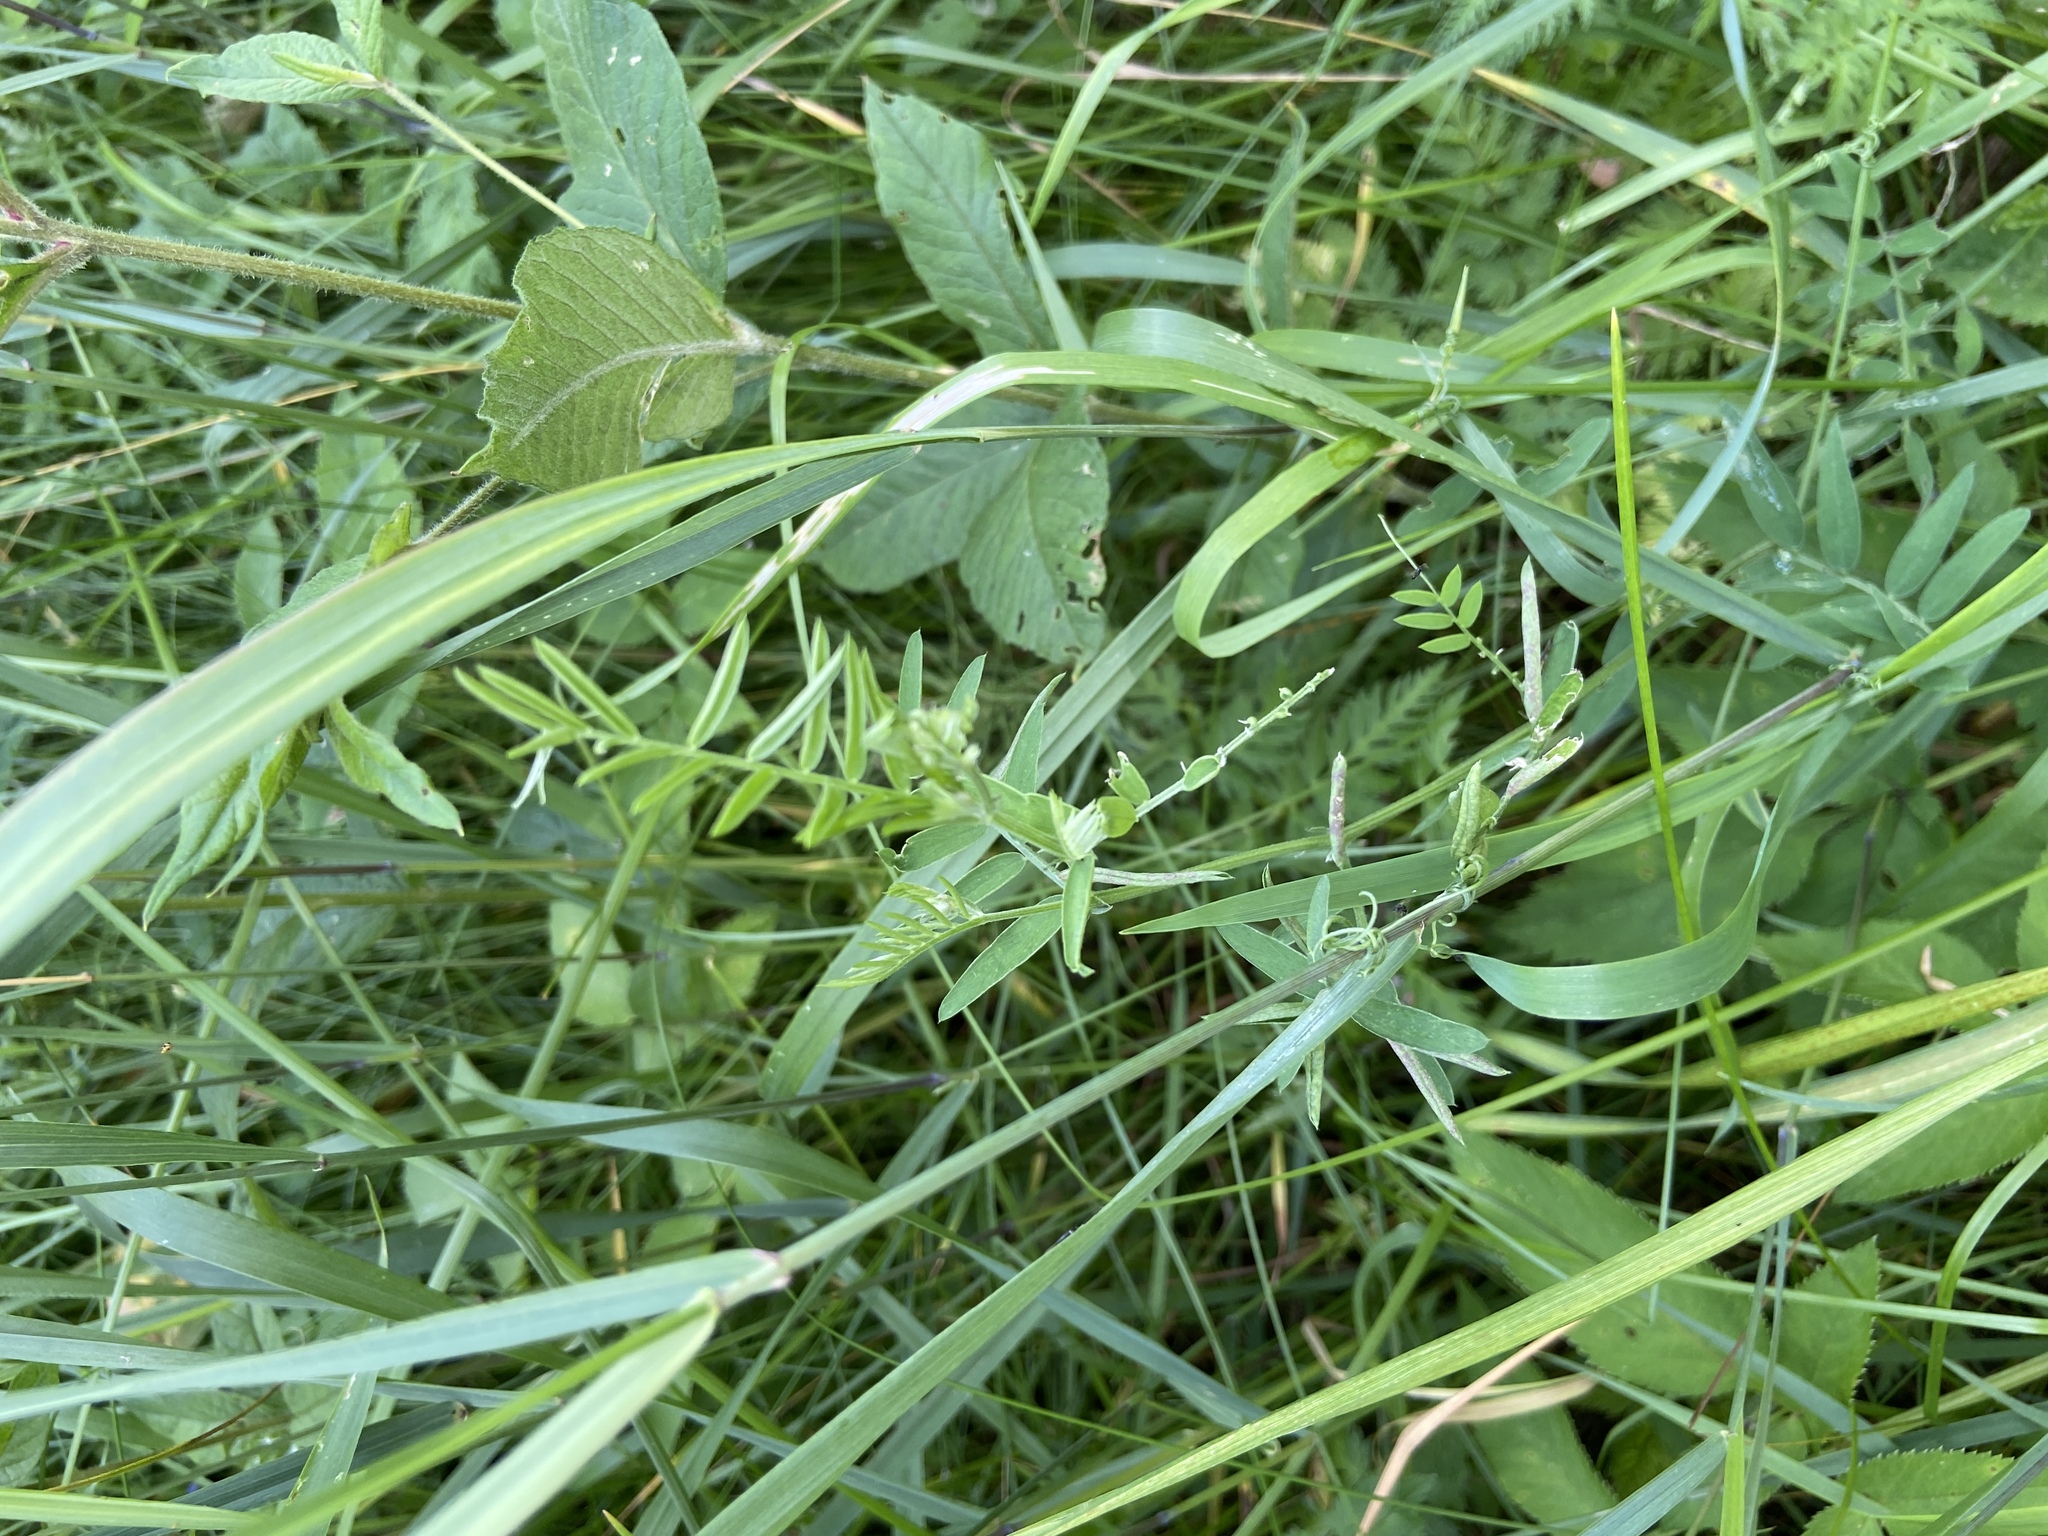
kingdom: Plantae
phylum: Tracheophyta
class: Magnoliopsida
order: Fabales
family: Fabaceae
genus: Vicia
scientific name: Vicia cracca
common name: Bird vetch
